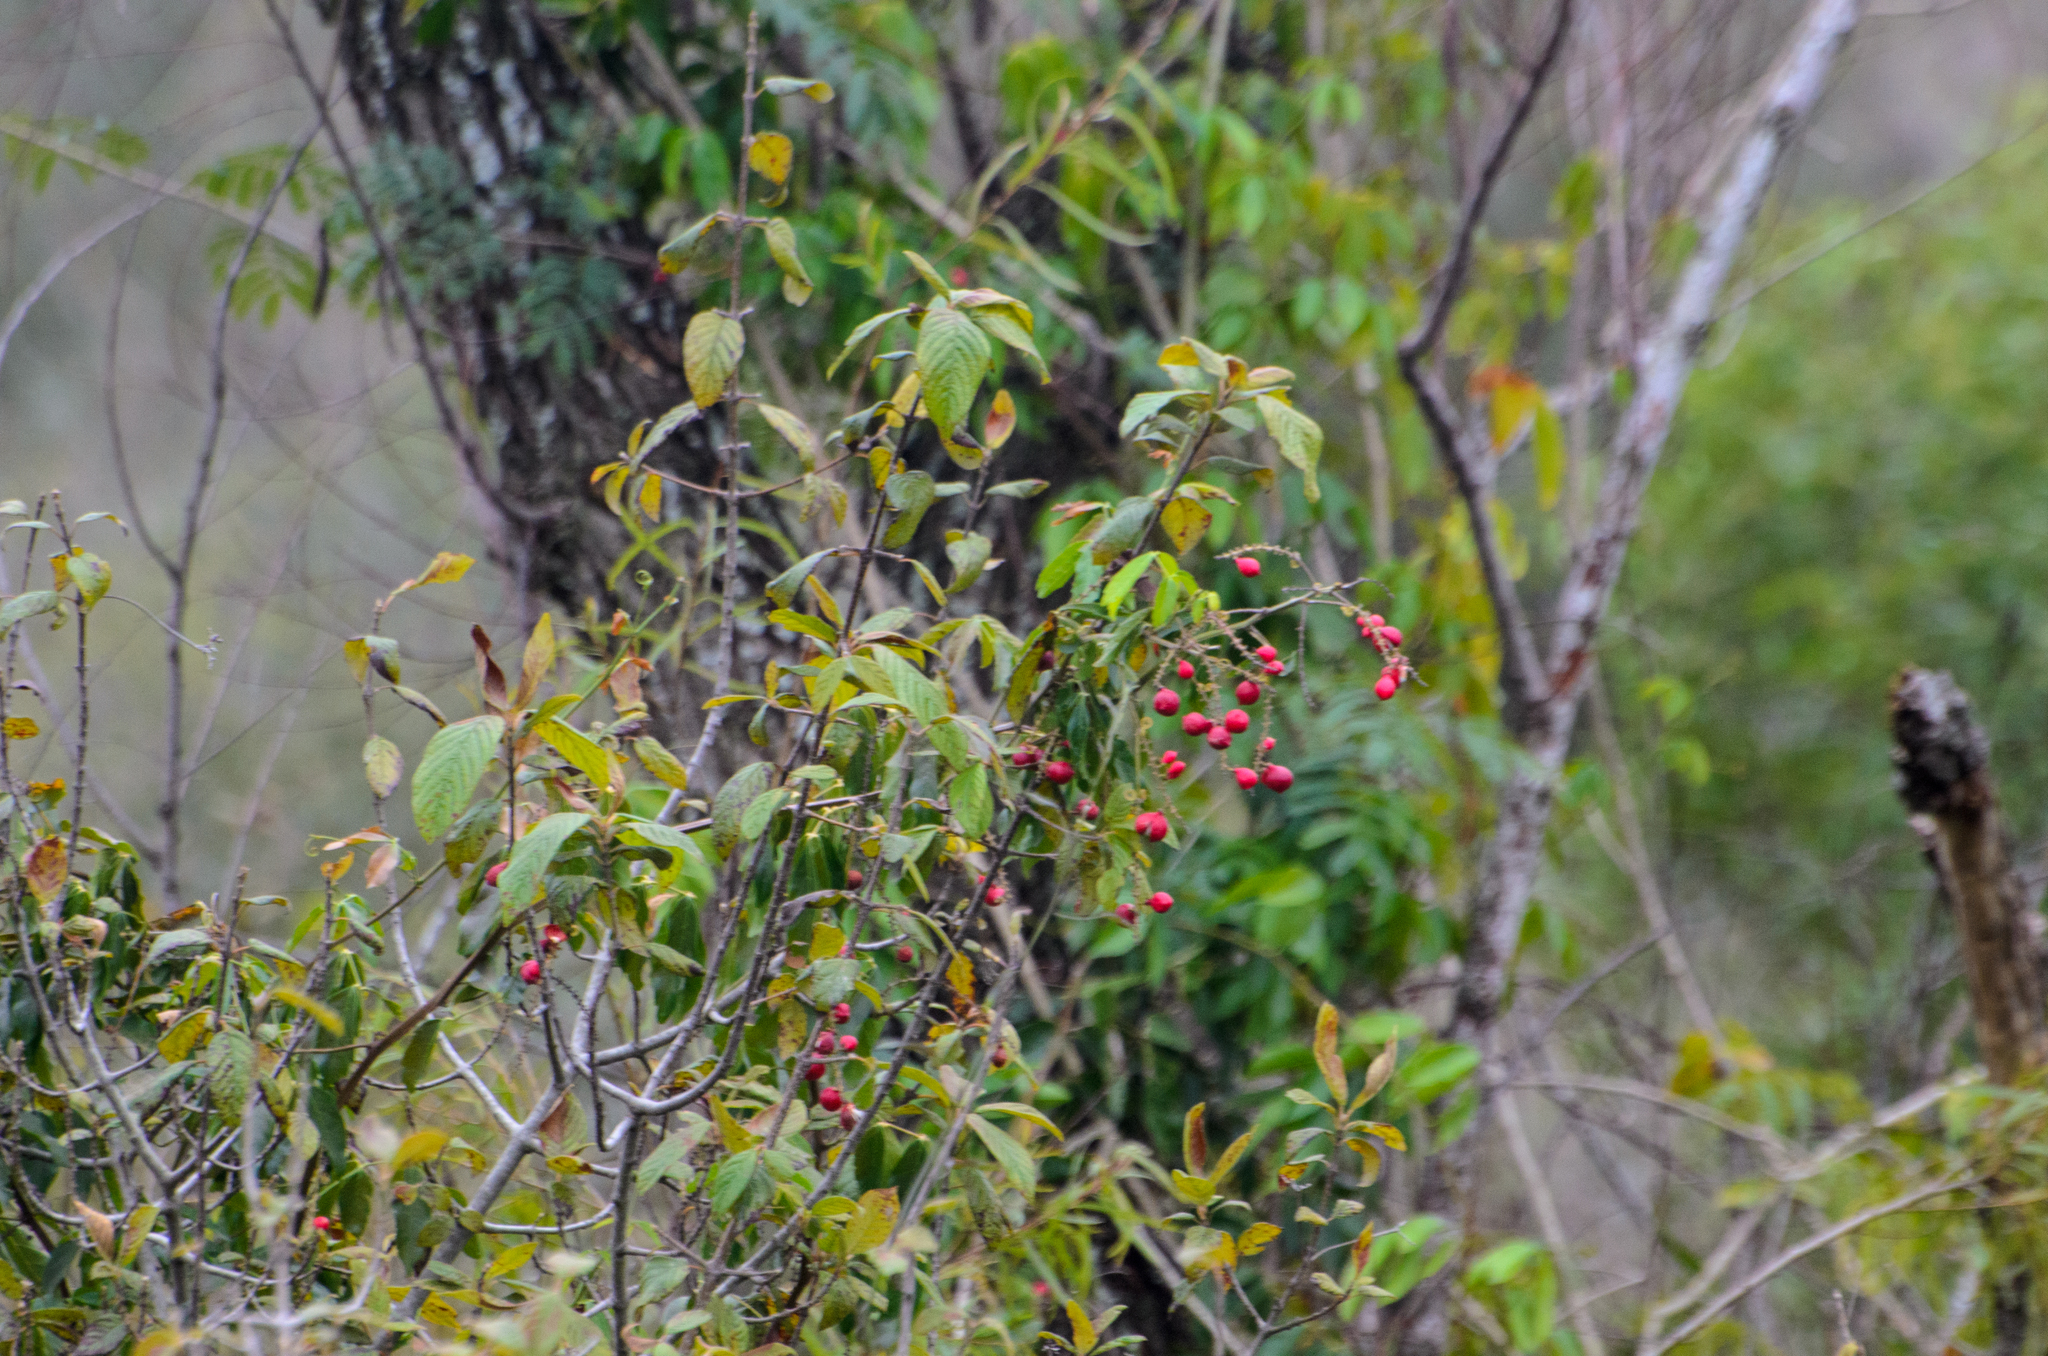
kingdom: Plantae
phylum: Tracheophyta
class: Magnoliopsida
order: Sapindales
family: Sapindaceae
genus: Paullinia
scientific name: Paullinia elegans
